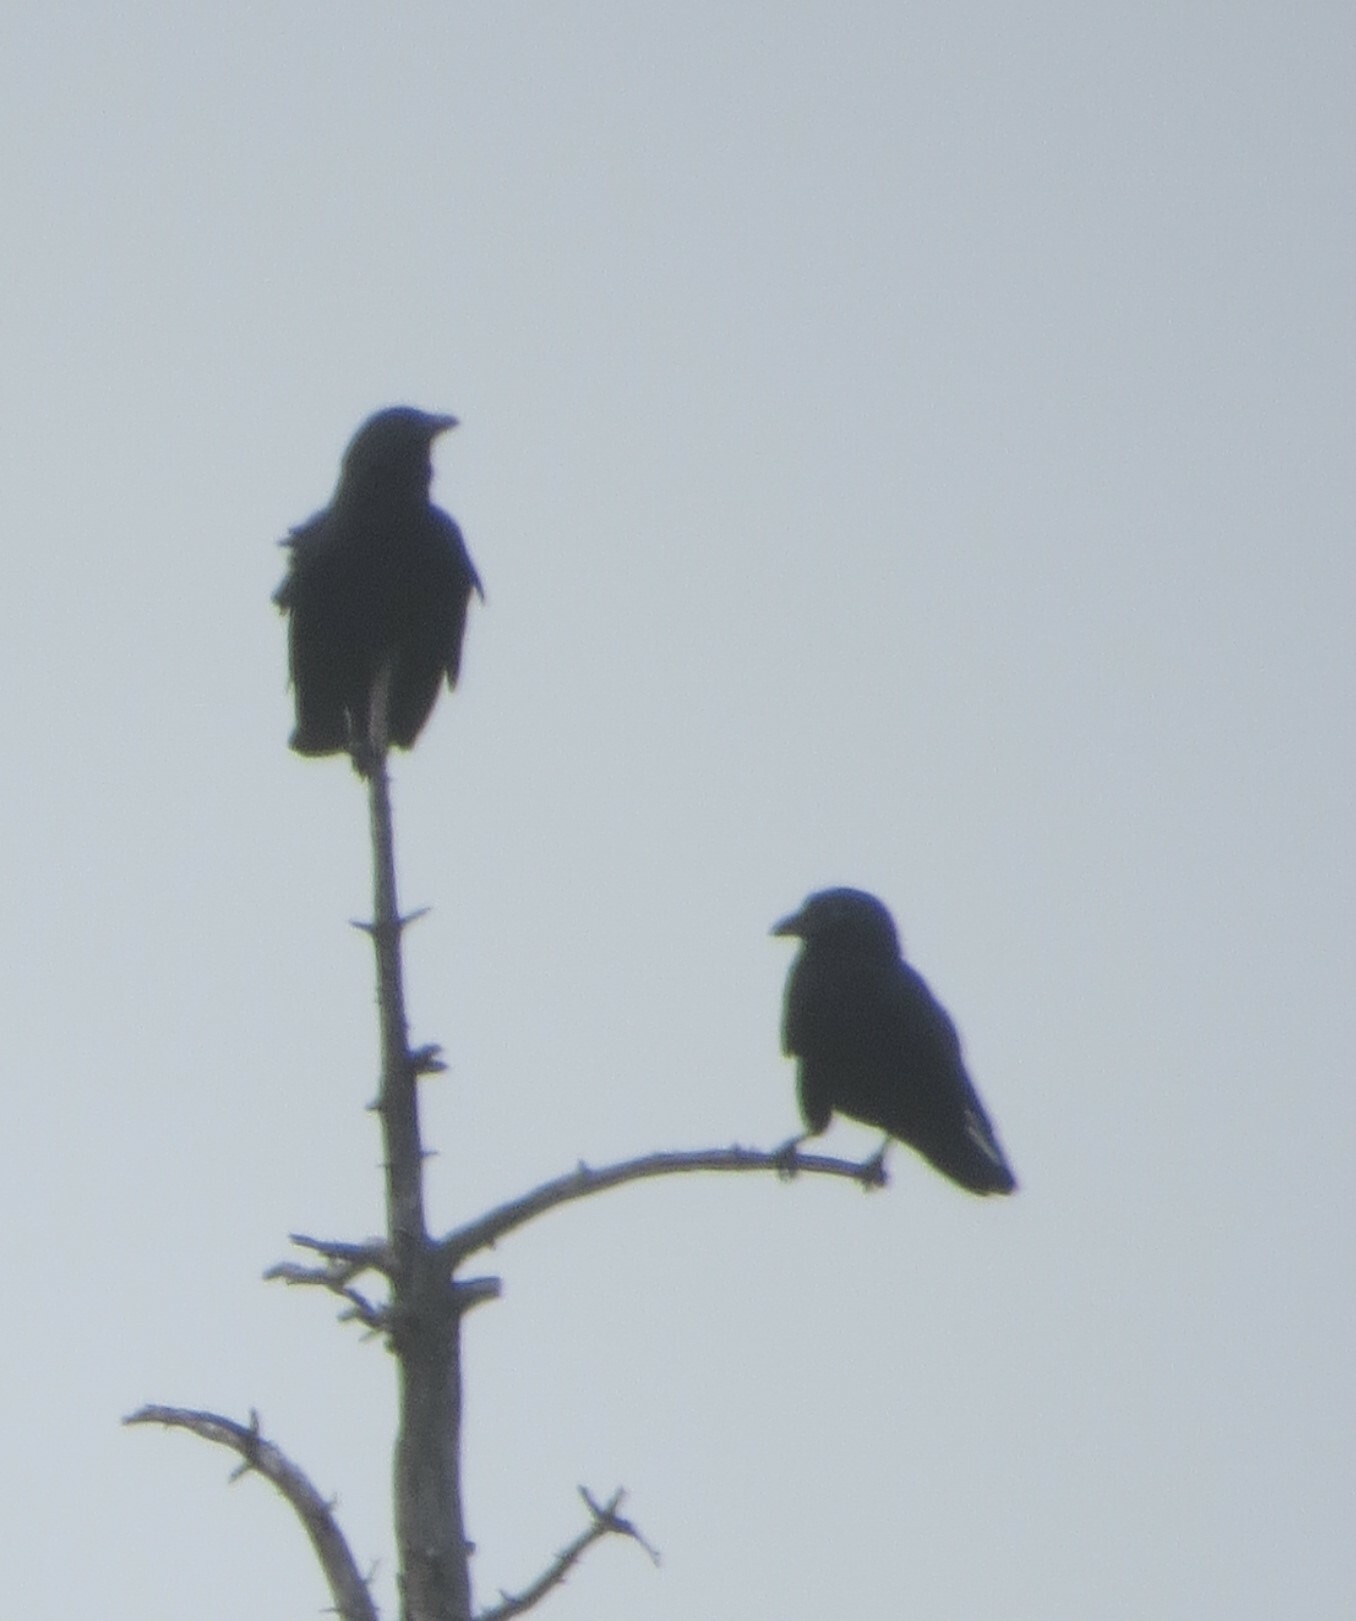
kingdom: Animalia
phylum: Chordata
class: Aves
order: Passeriformes
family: Corvidae
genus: Corvus
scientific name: Corvus brachyrhynchos
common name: American crow
